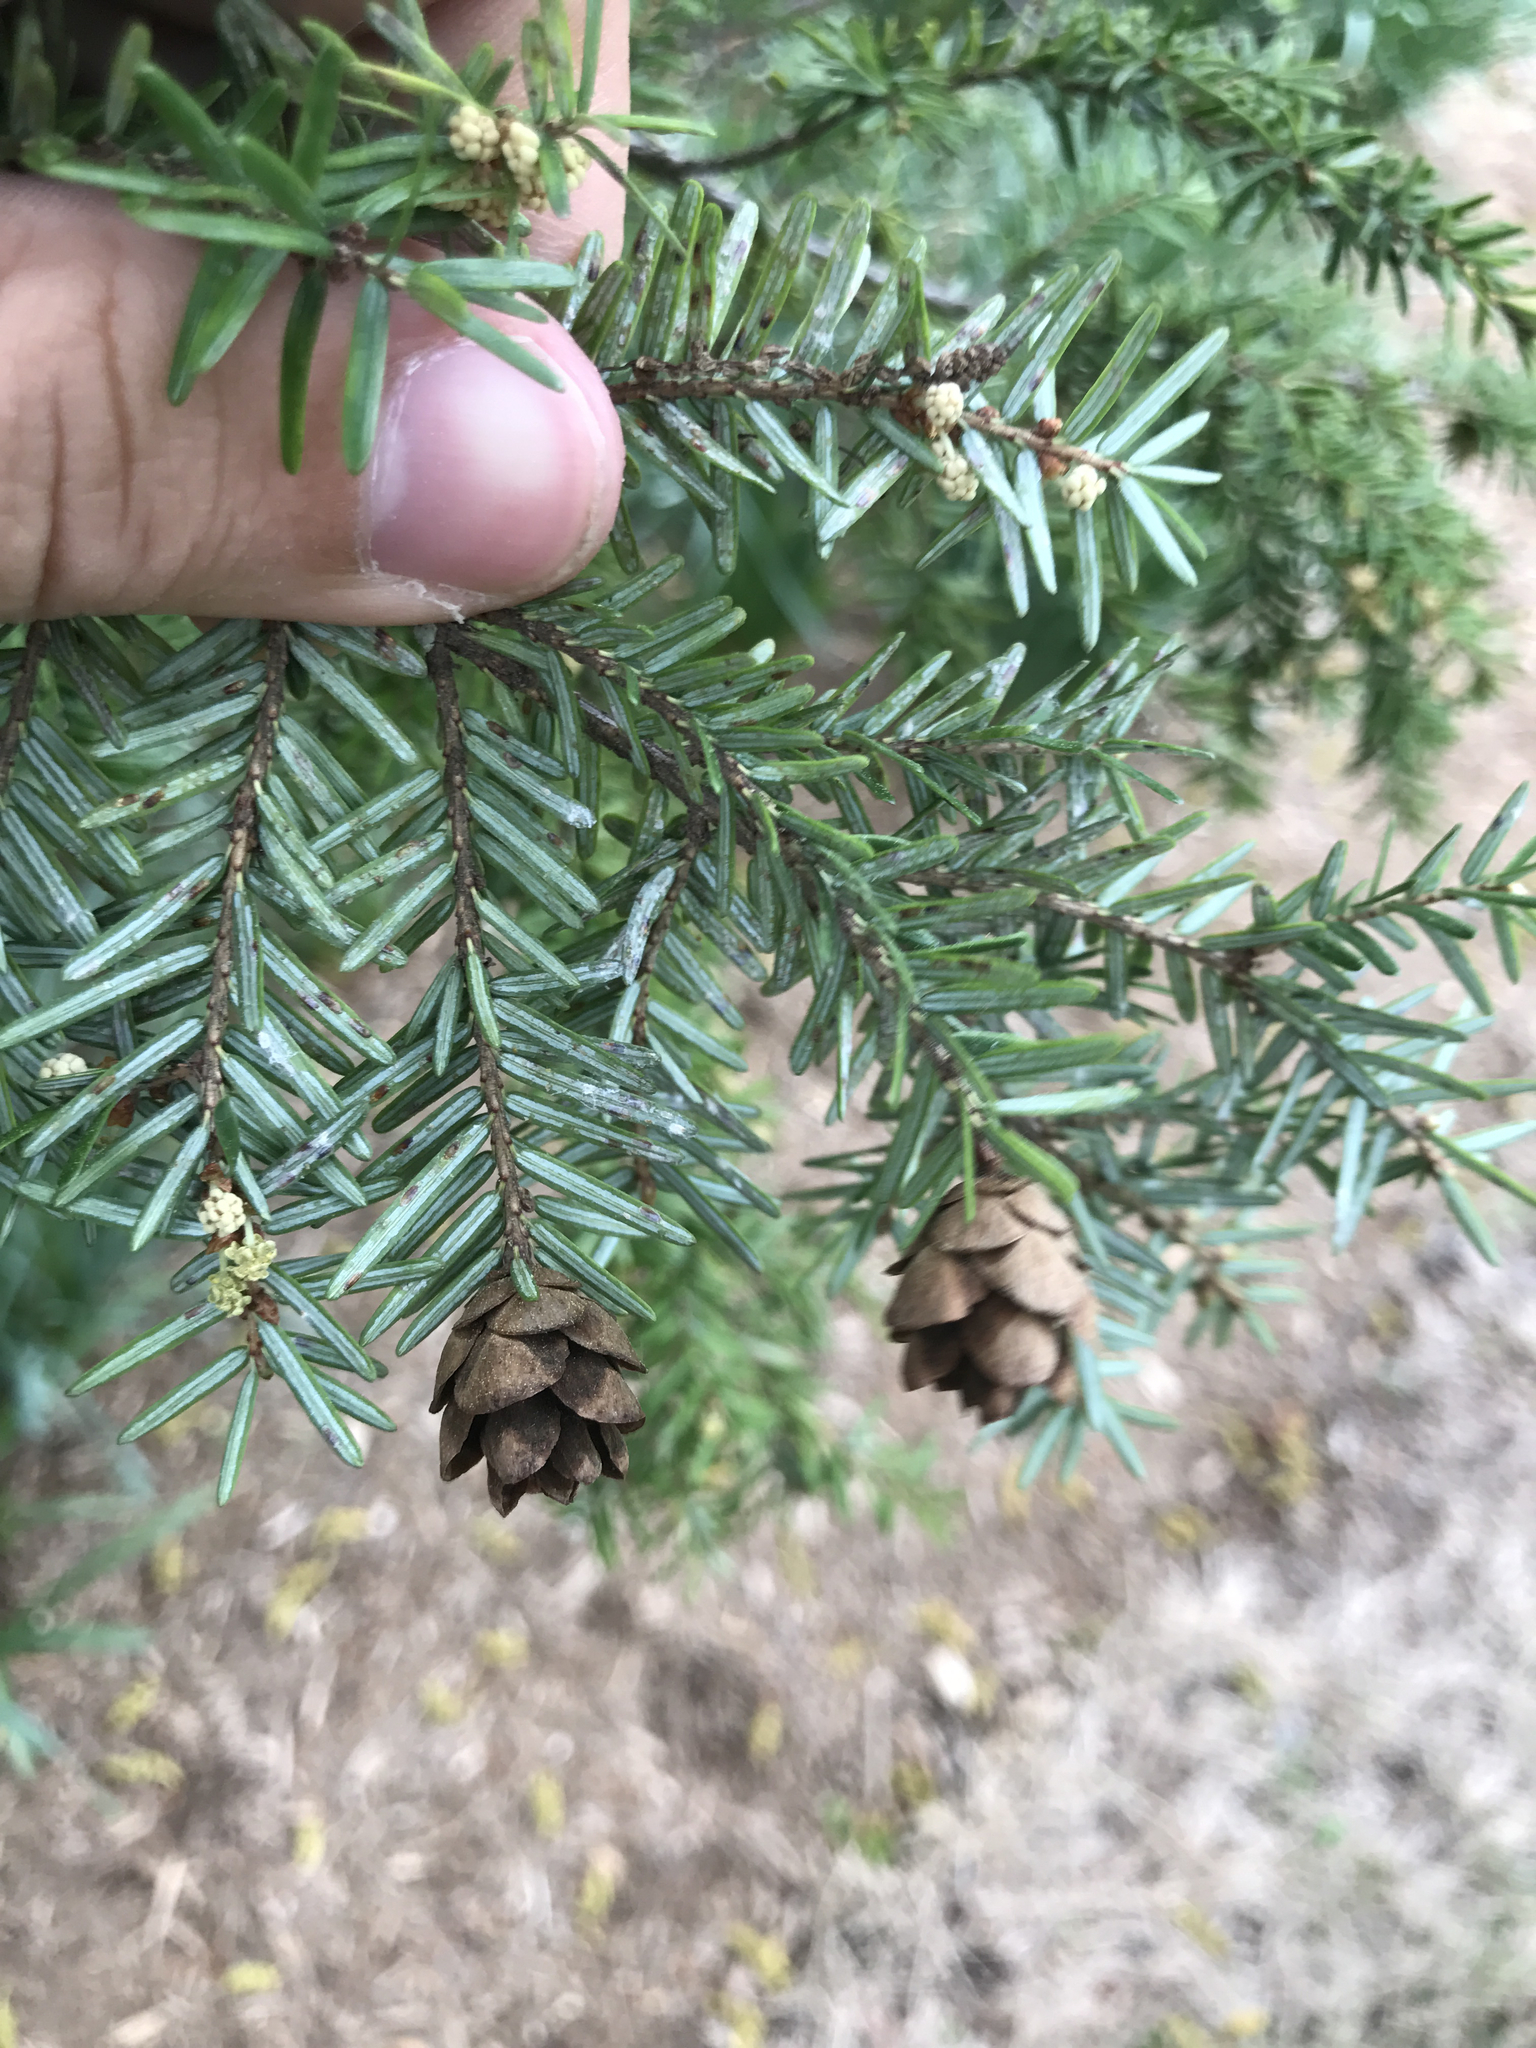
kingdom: Plantae
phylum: Tracheophyta
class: Pinopsida
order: Pinales
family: Pinaceae
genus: Tsuga
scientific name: Tsuga canadensis
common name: Eastern hemlock
